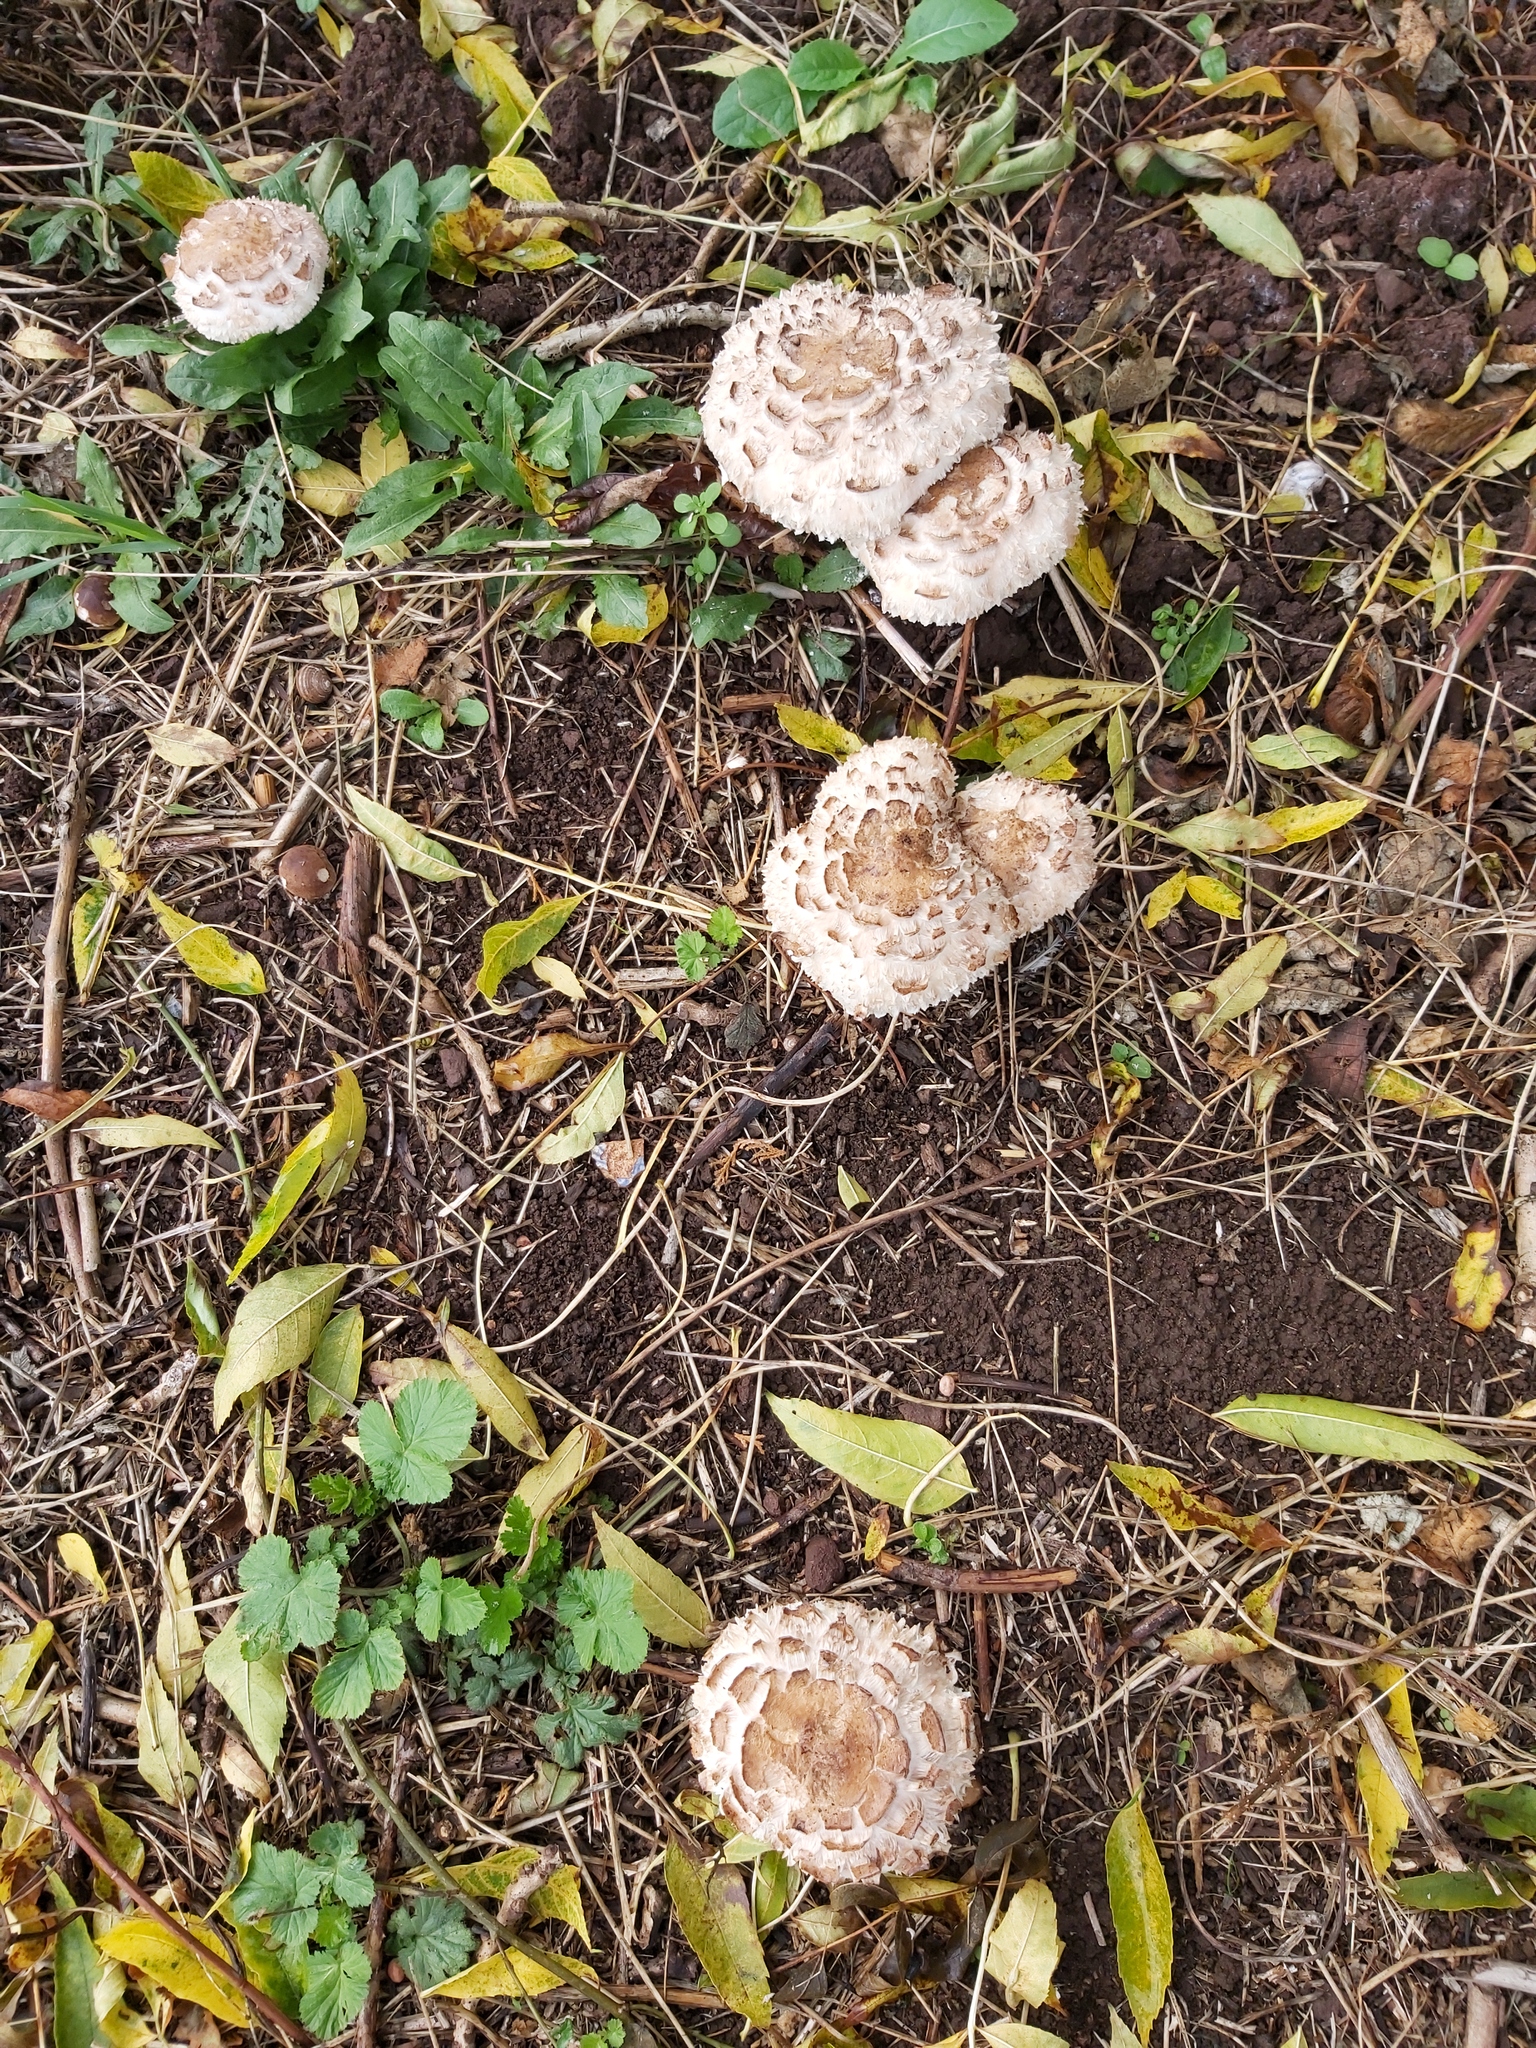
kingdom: Fungi
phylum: Basidiomycota
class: Agaricomycetes
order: Agaricales
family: Agaricaceae
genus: Chlorophyllum
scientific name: Chlorophyllum rhacodes
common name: Shaggy parasol
